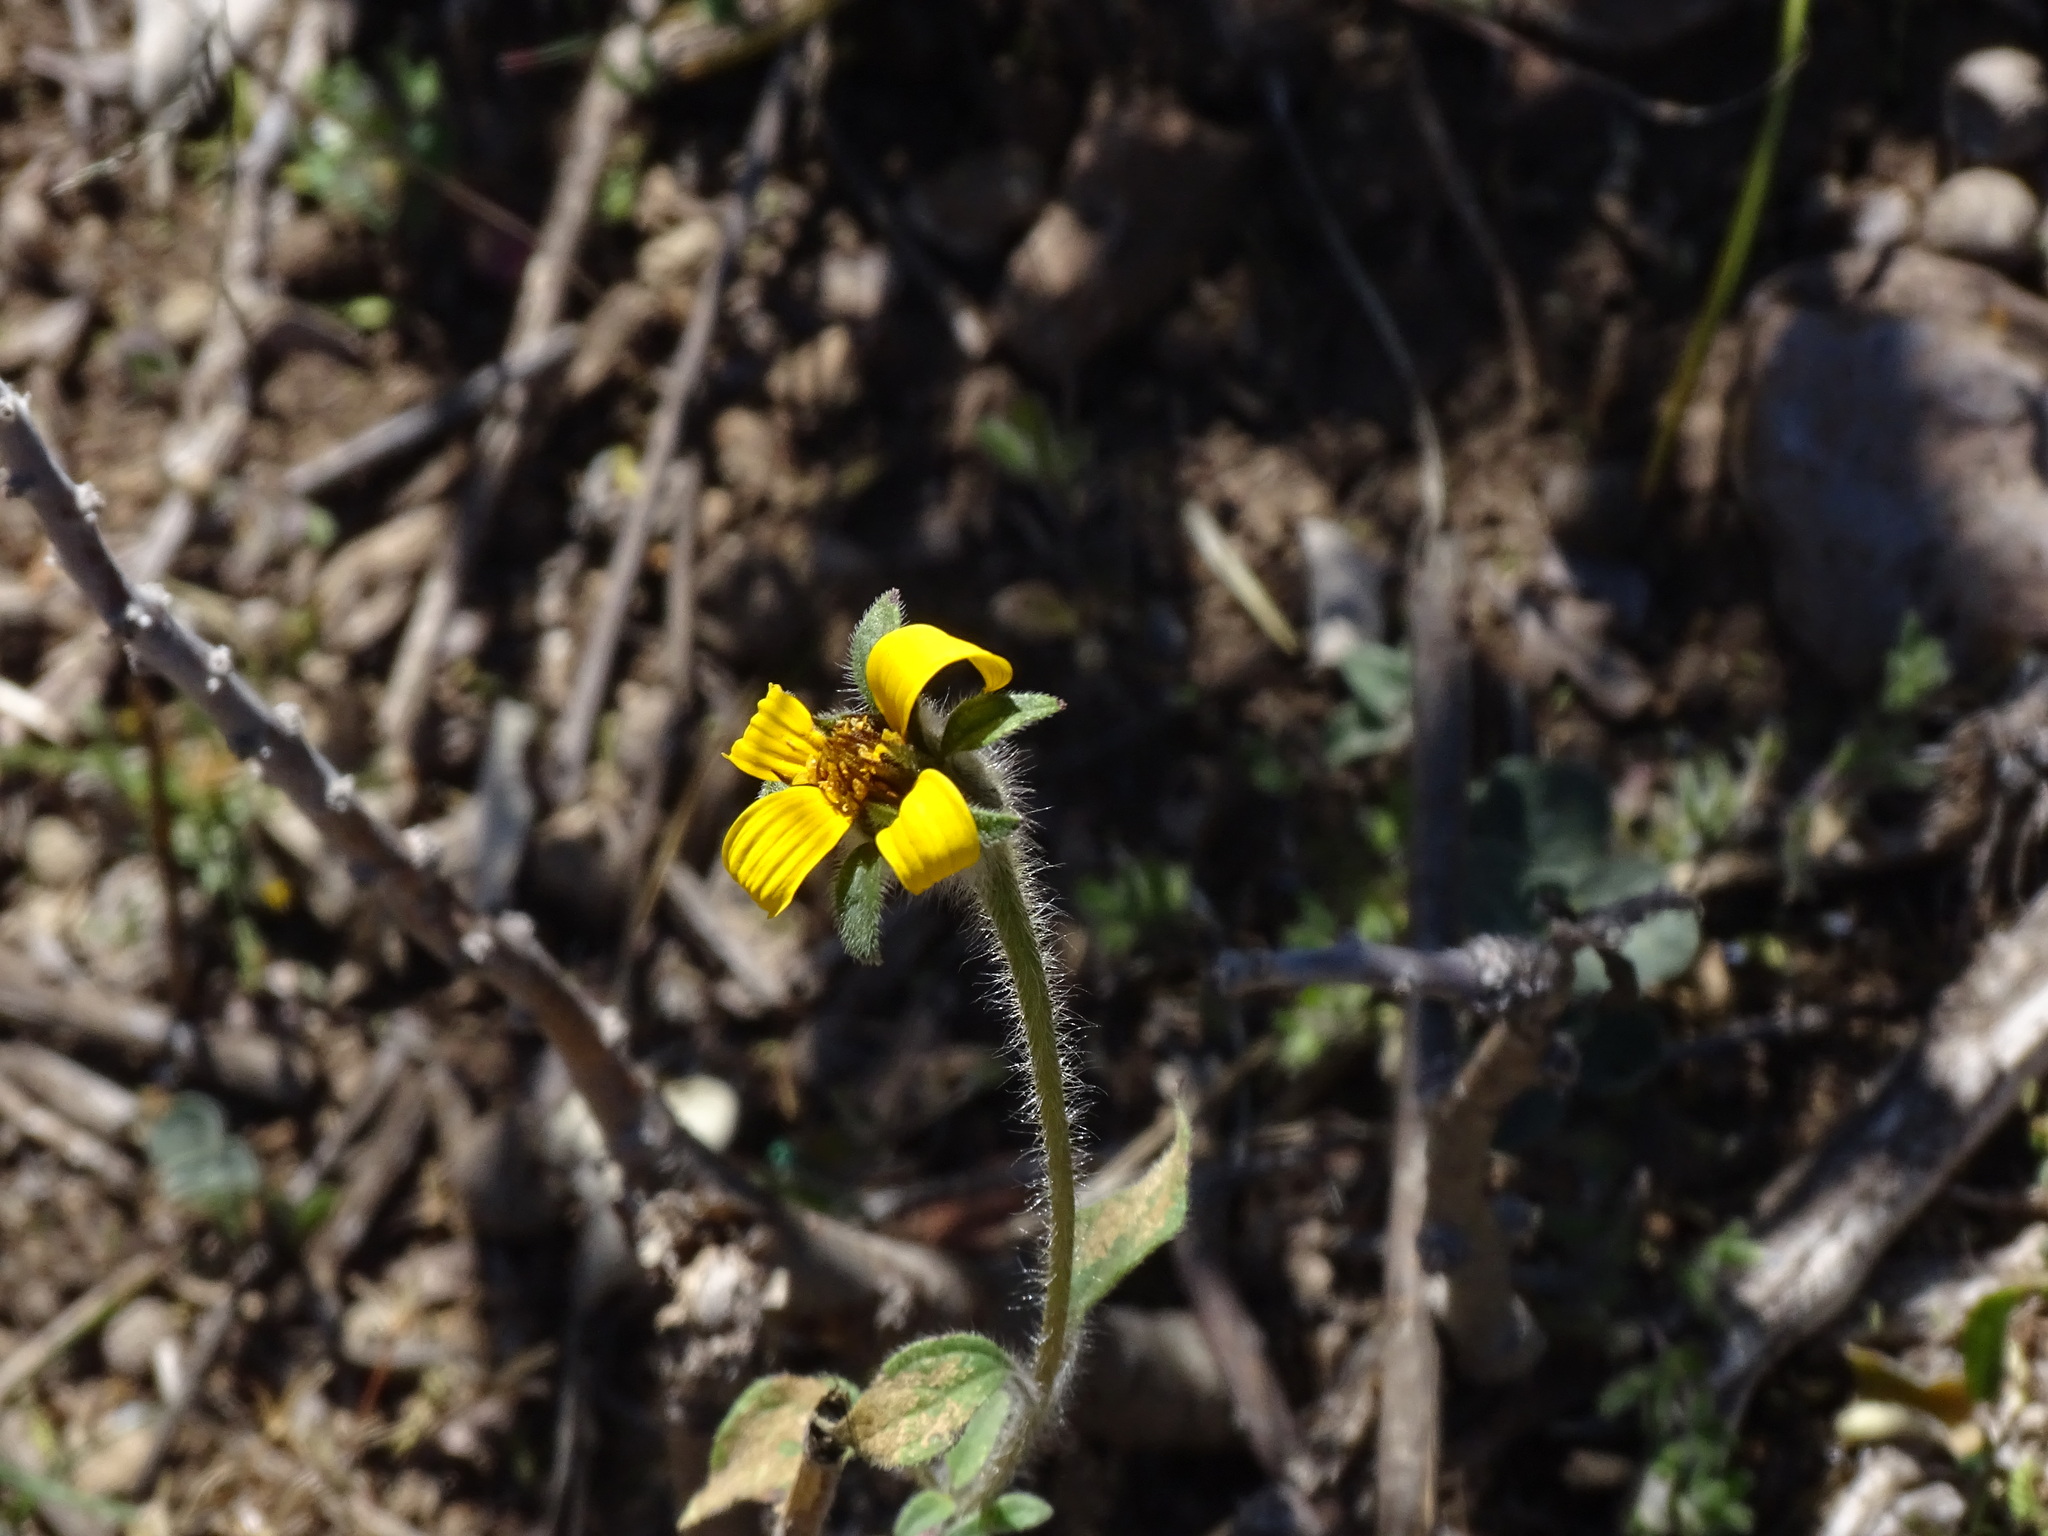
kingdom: Plantae
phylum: Tracheophyta
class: Magnoliopsida
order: Asterales
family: Asteraceae
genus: Tithonia
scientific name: Tithonia tubaeformis
